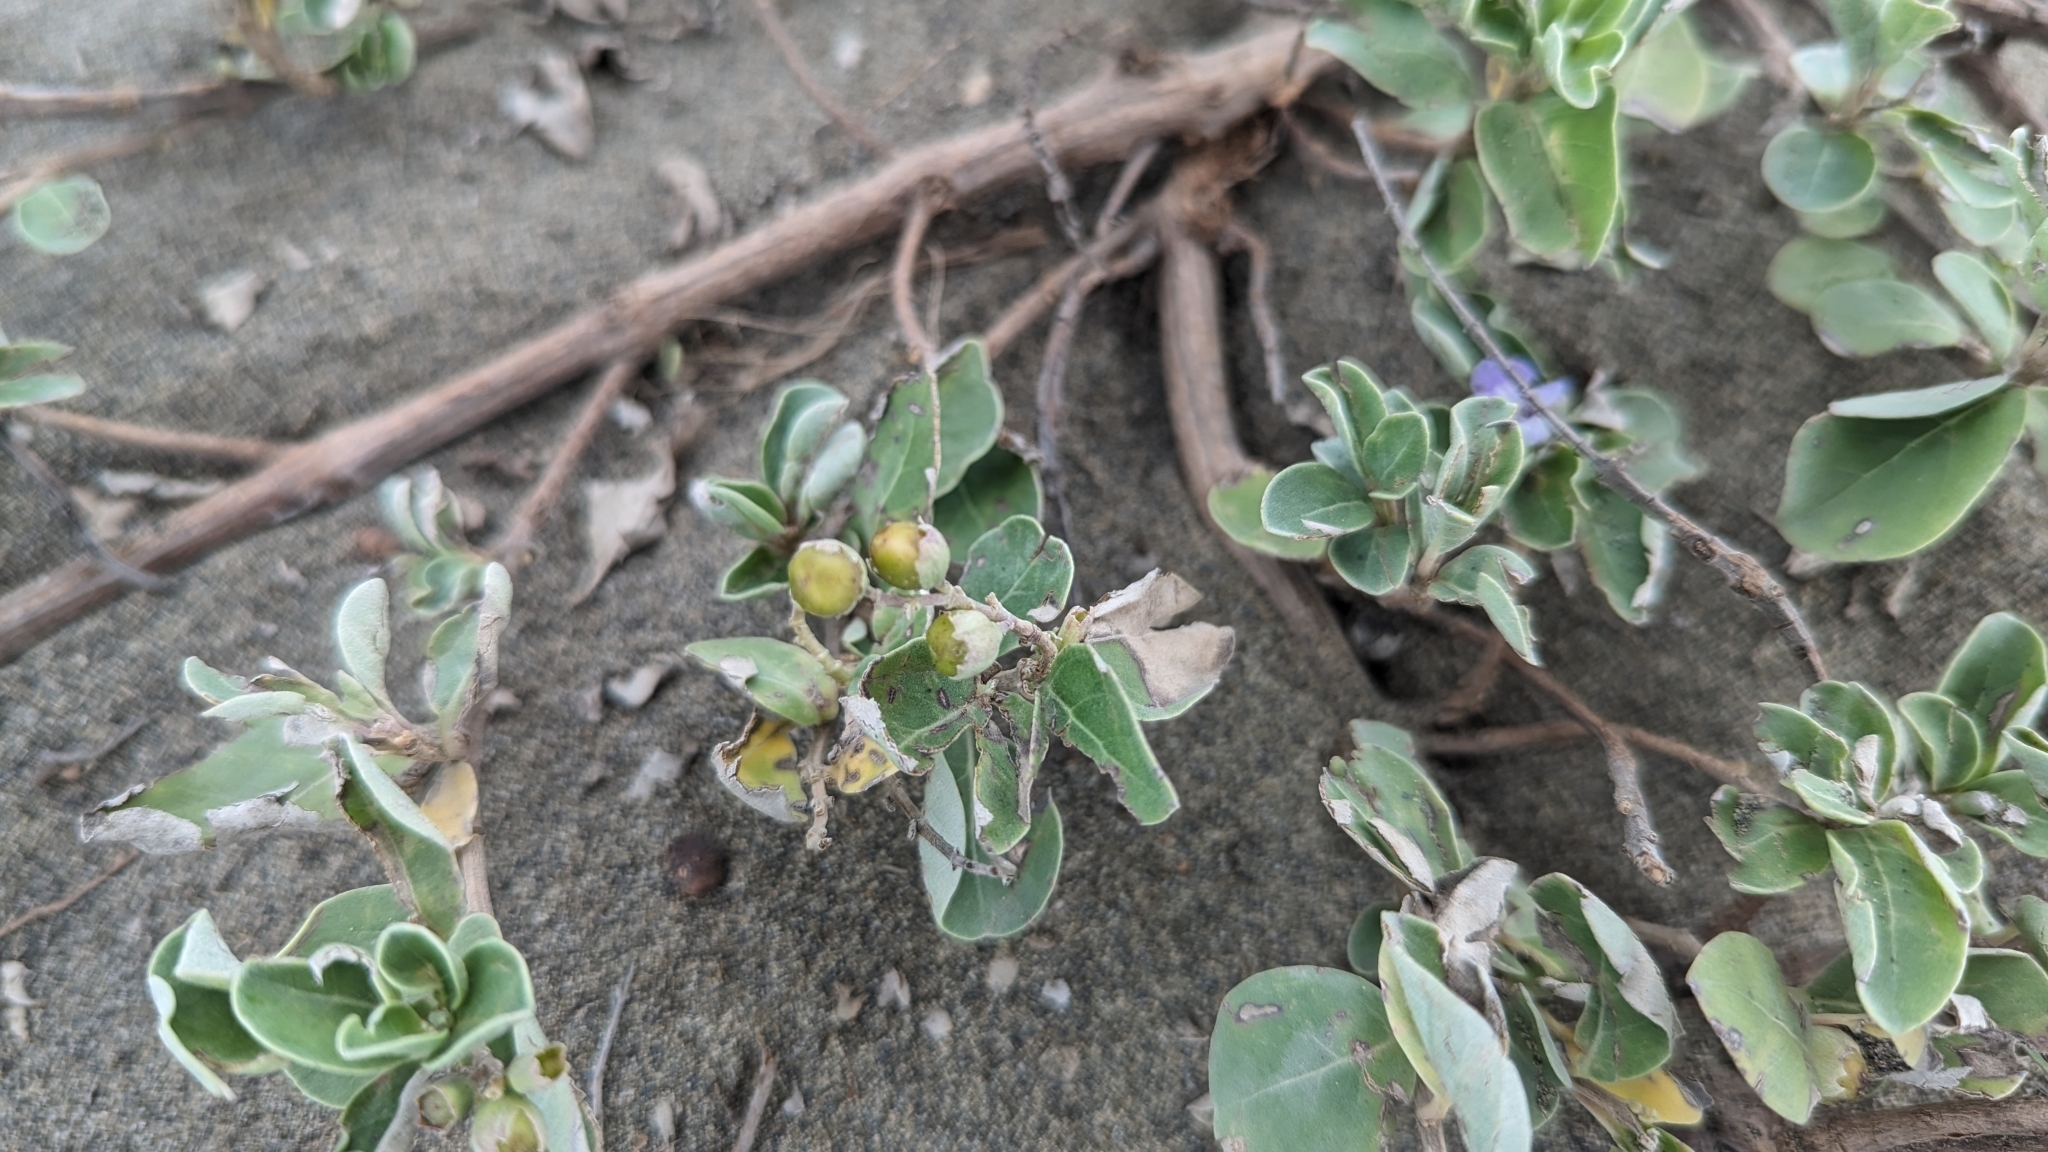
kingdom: Plantae
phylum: Tracheophyta
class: Magnoliopsida
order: Lamiales
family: Lamiaceae
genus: Vitex
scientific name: Vitex rotundifolia
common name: Beach vitex
